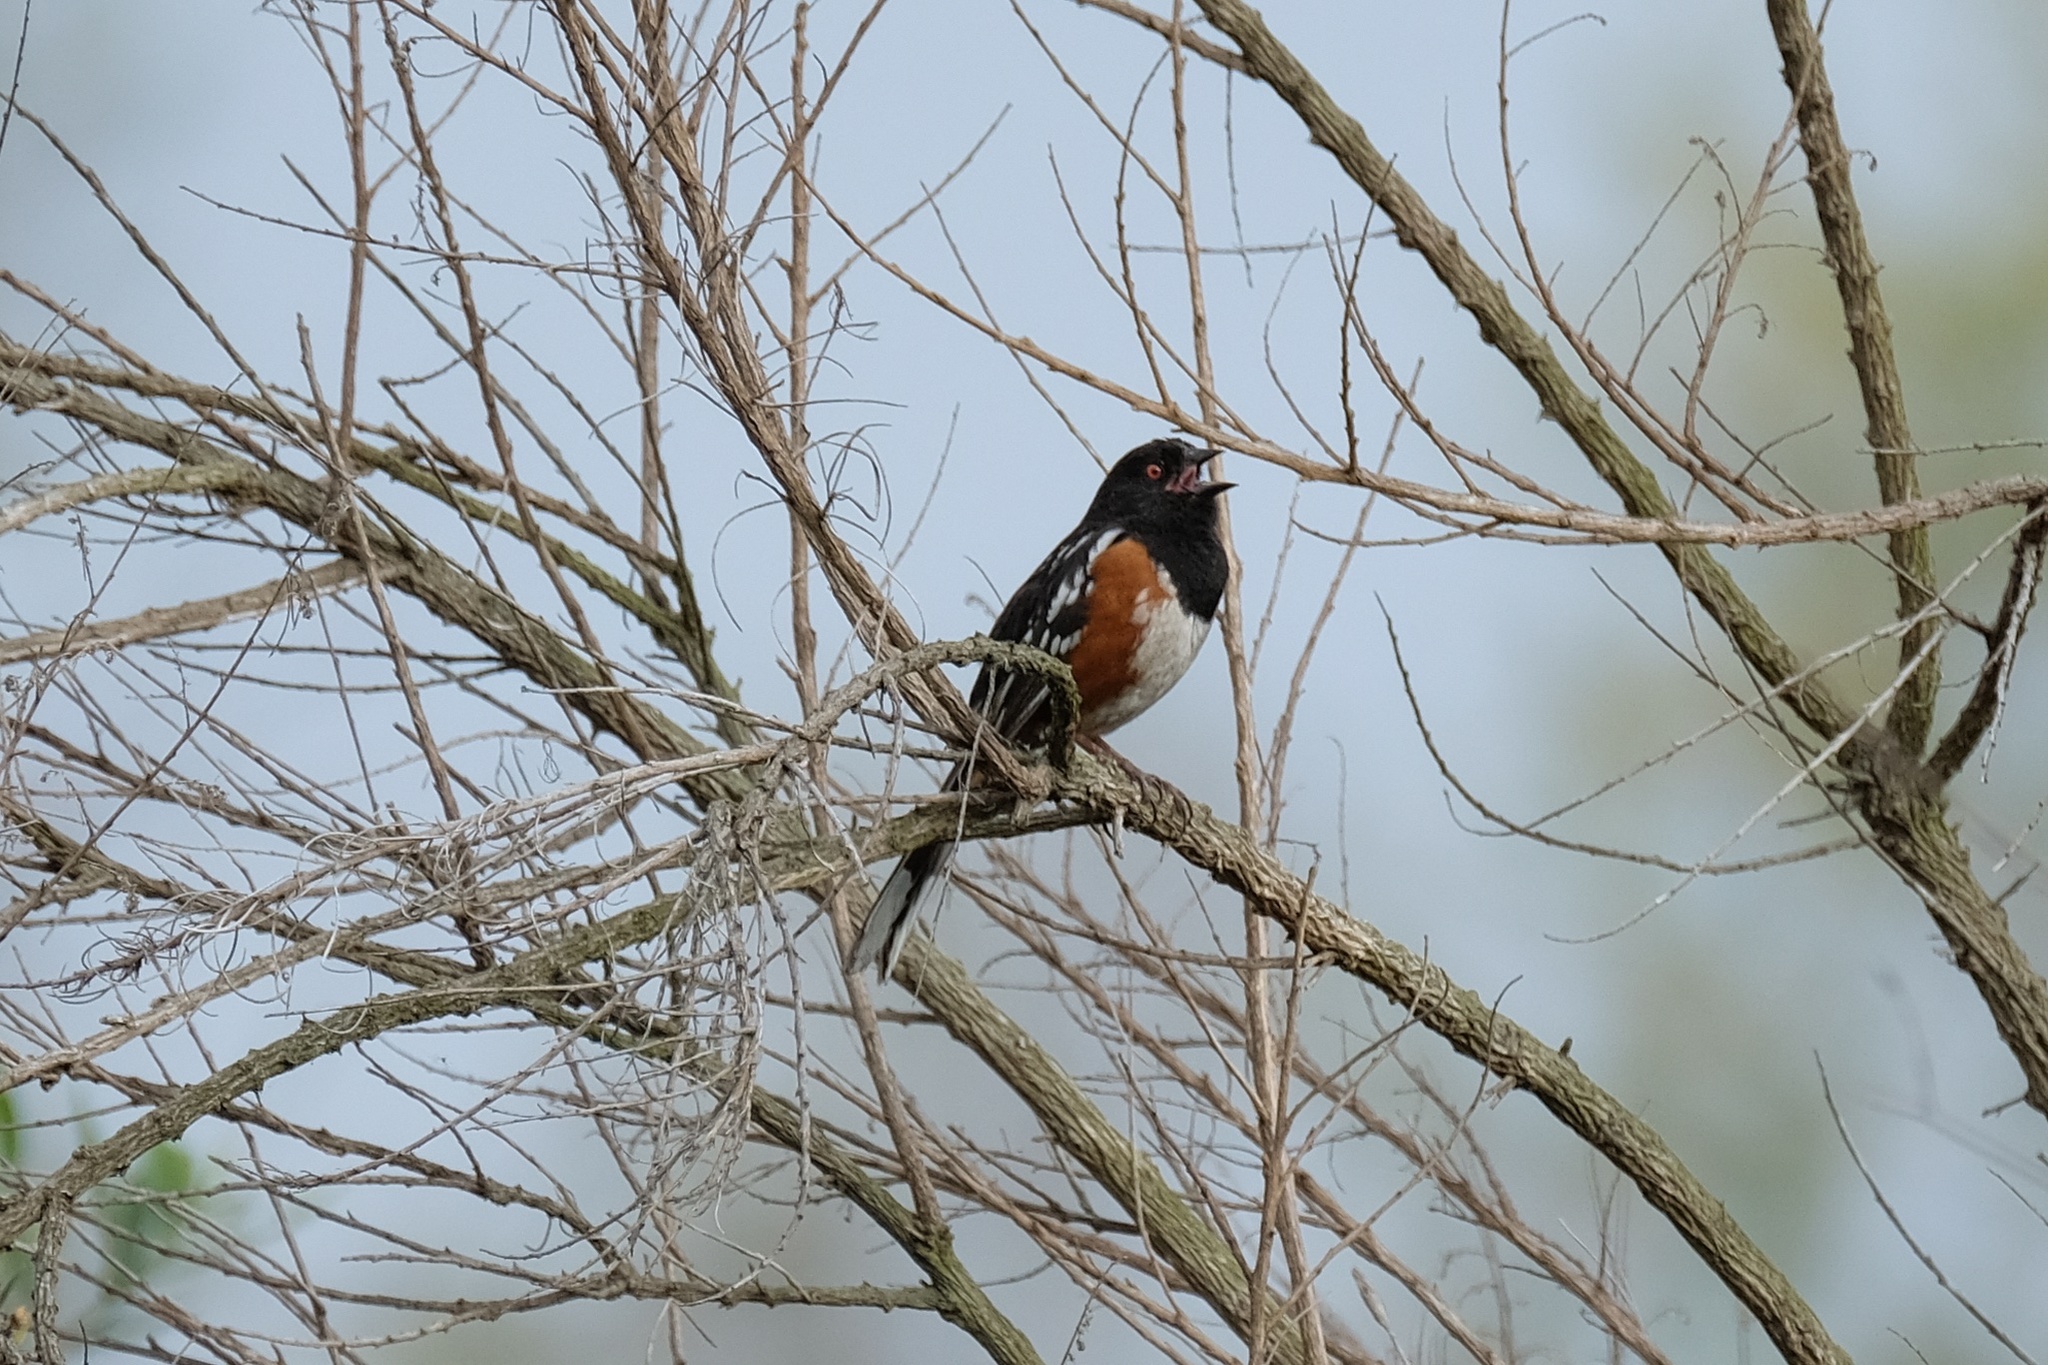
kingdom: Animalia
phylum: Chordata
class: Aves
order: Passeriformes
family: Passerellidae
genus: Pipilo
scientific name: Pipilo maculatus
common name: Spotted towhee
